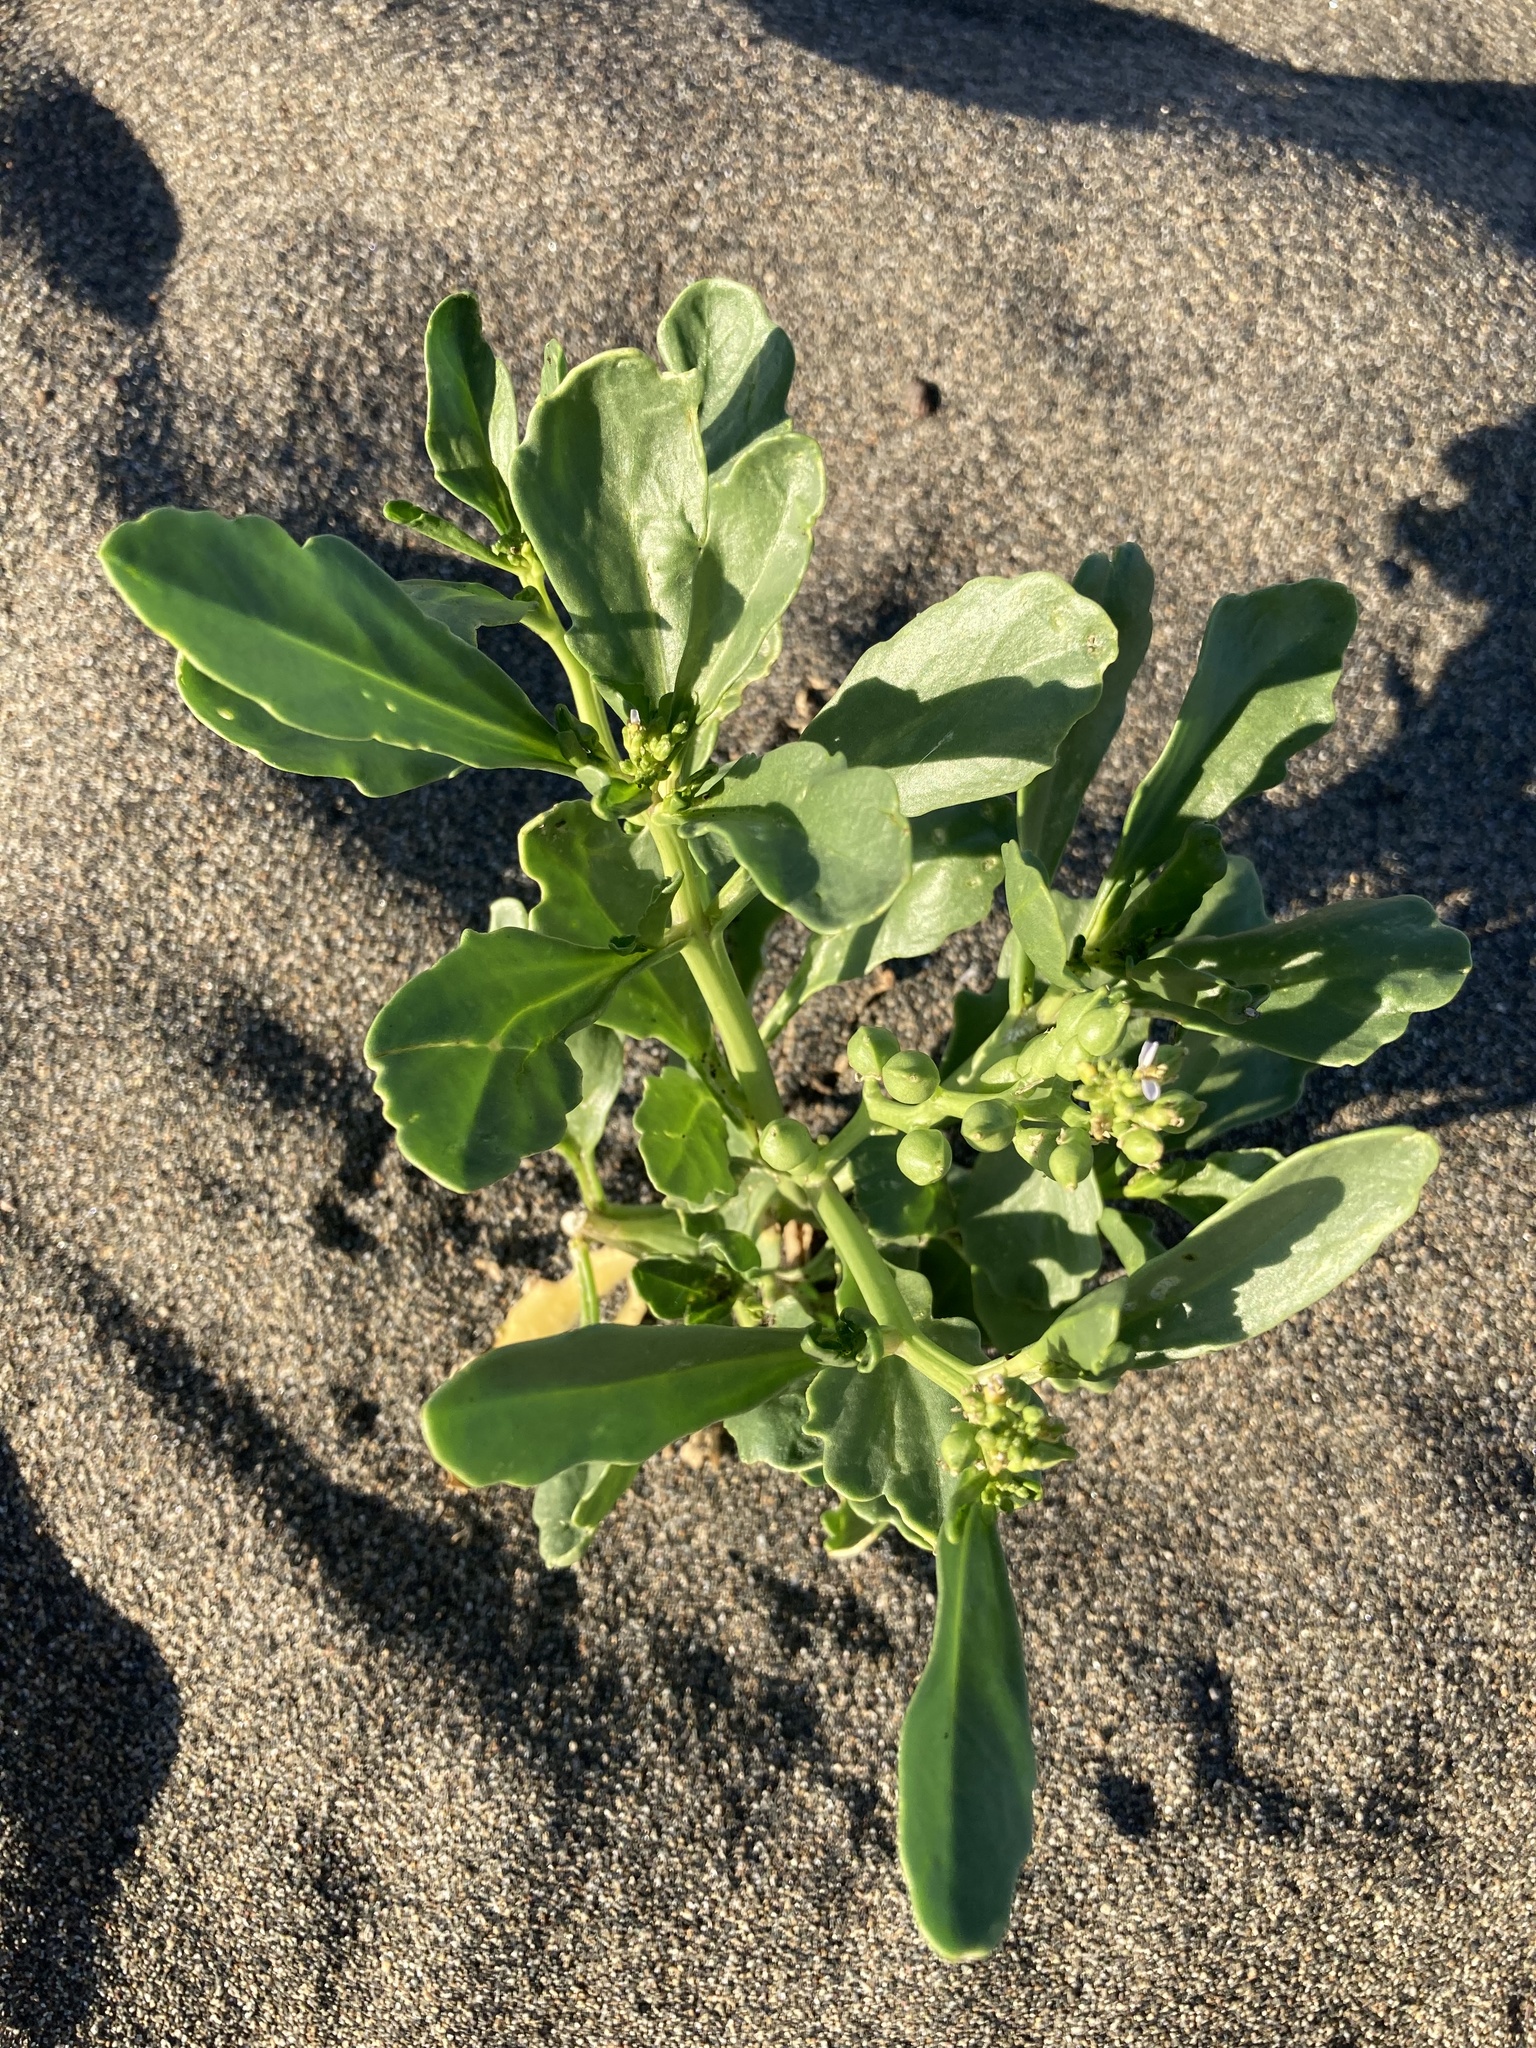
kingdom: Plantae
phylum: Tracheophyta
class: Magnoliopsida
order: Brassicales
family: Brassicaceae
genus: Cakile
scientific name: Cakile edentula
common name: American sea rocket
